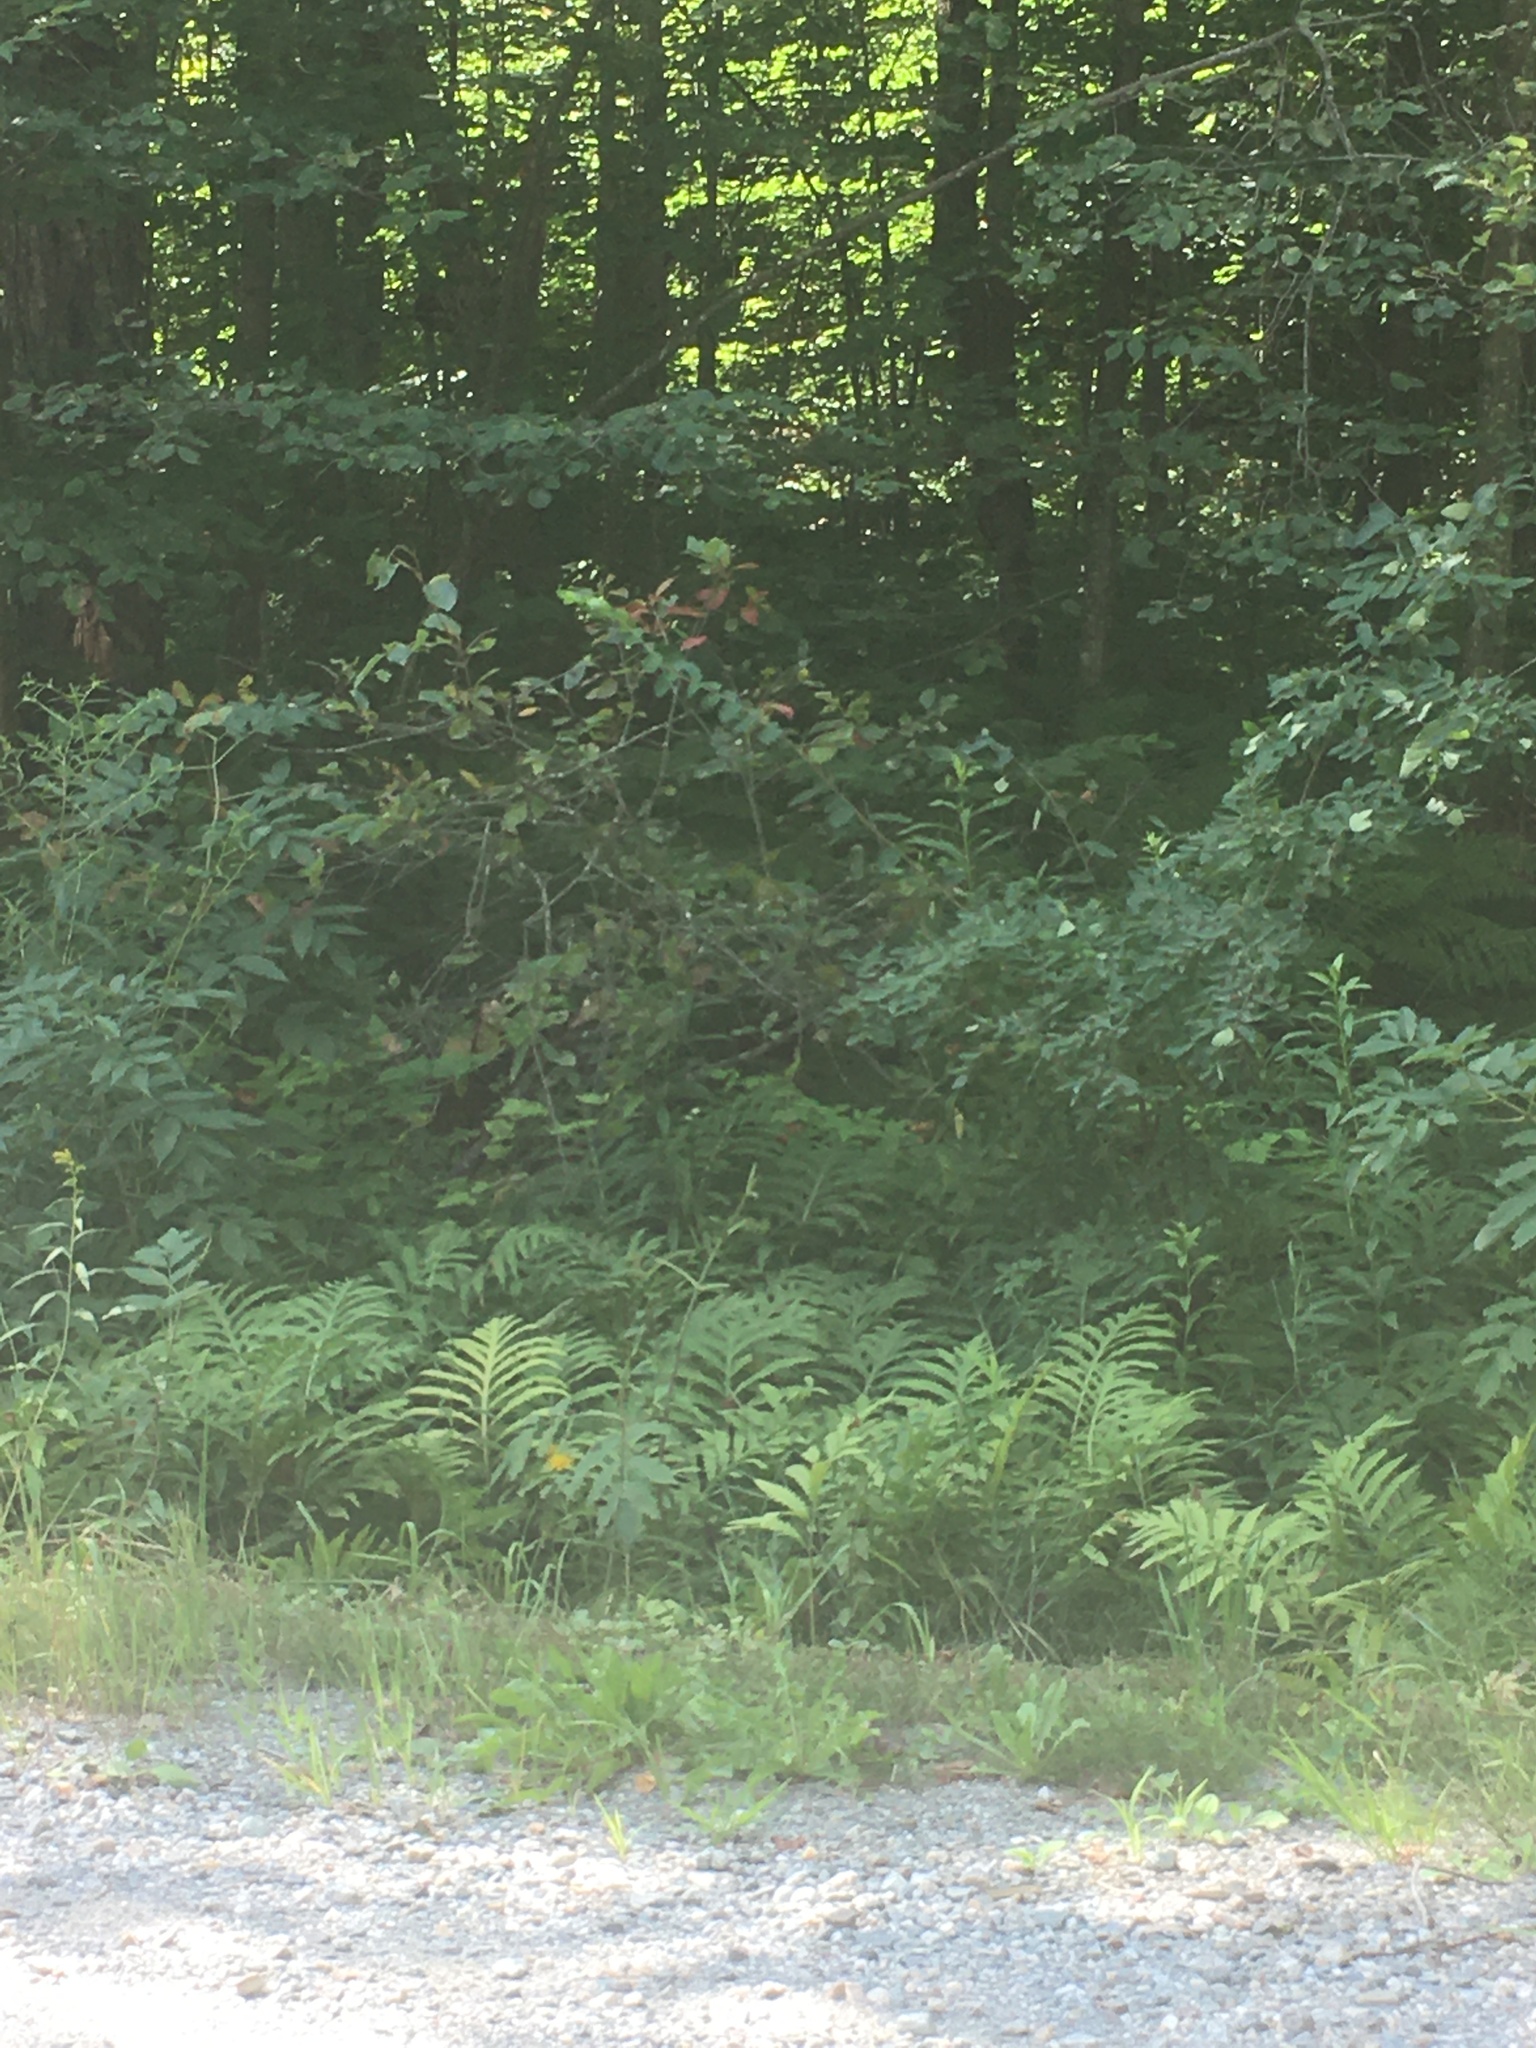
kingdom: Plantae
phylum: Tracheophyta
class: Polypodiopsida
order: Polypodiales
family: Onocleaceae
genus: Onoclea
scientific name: Onoclea sensibilis
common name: Sensitive fern
